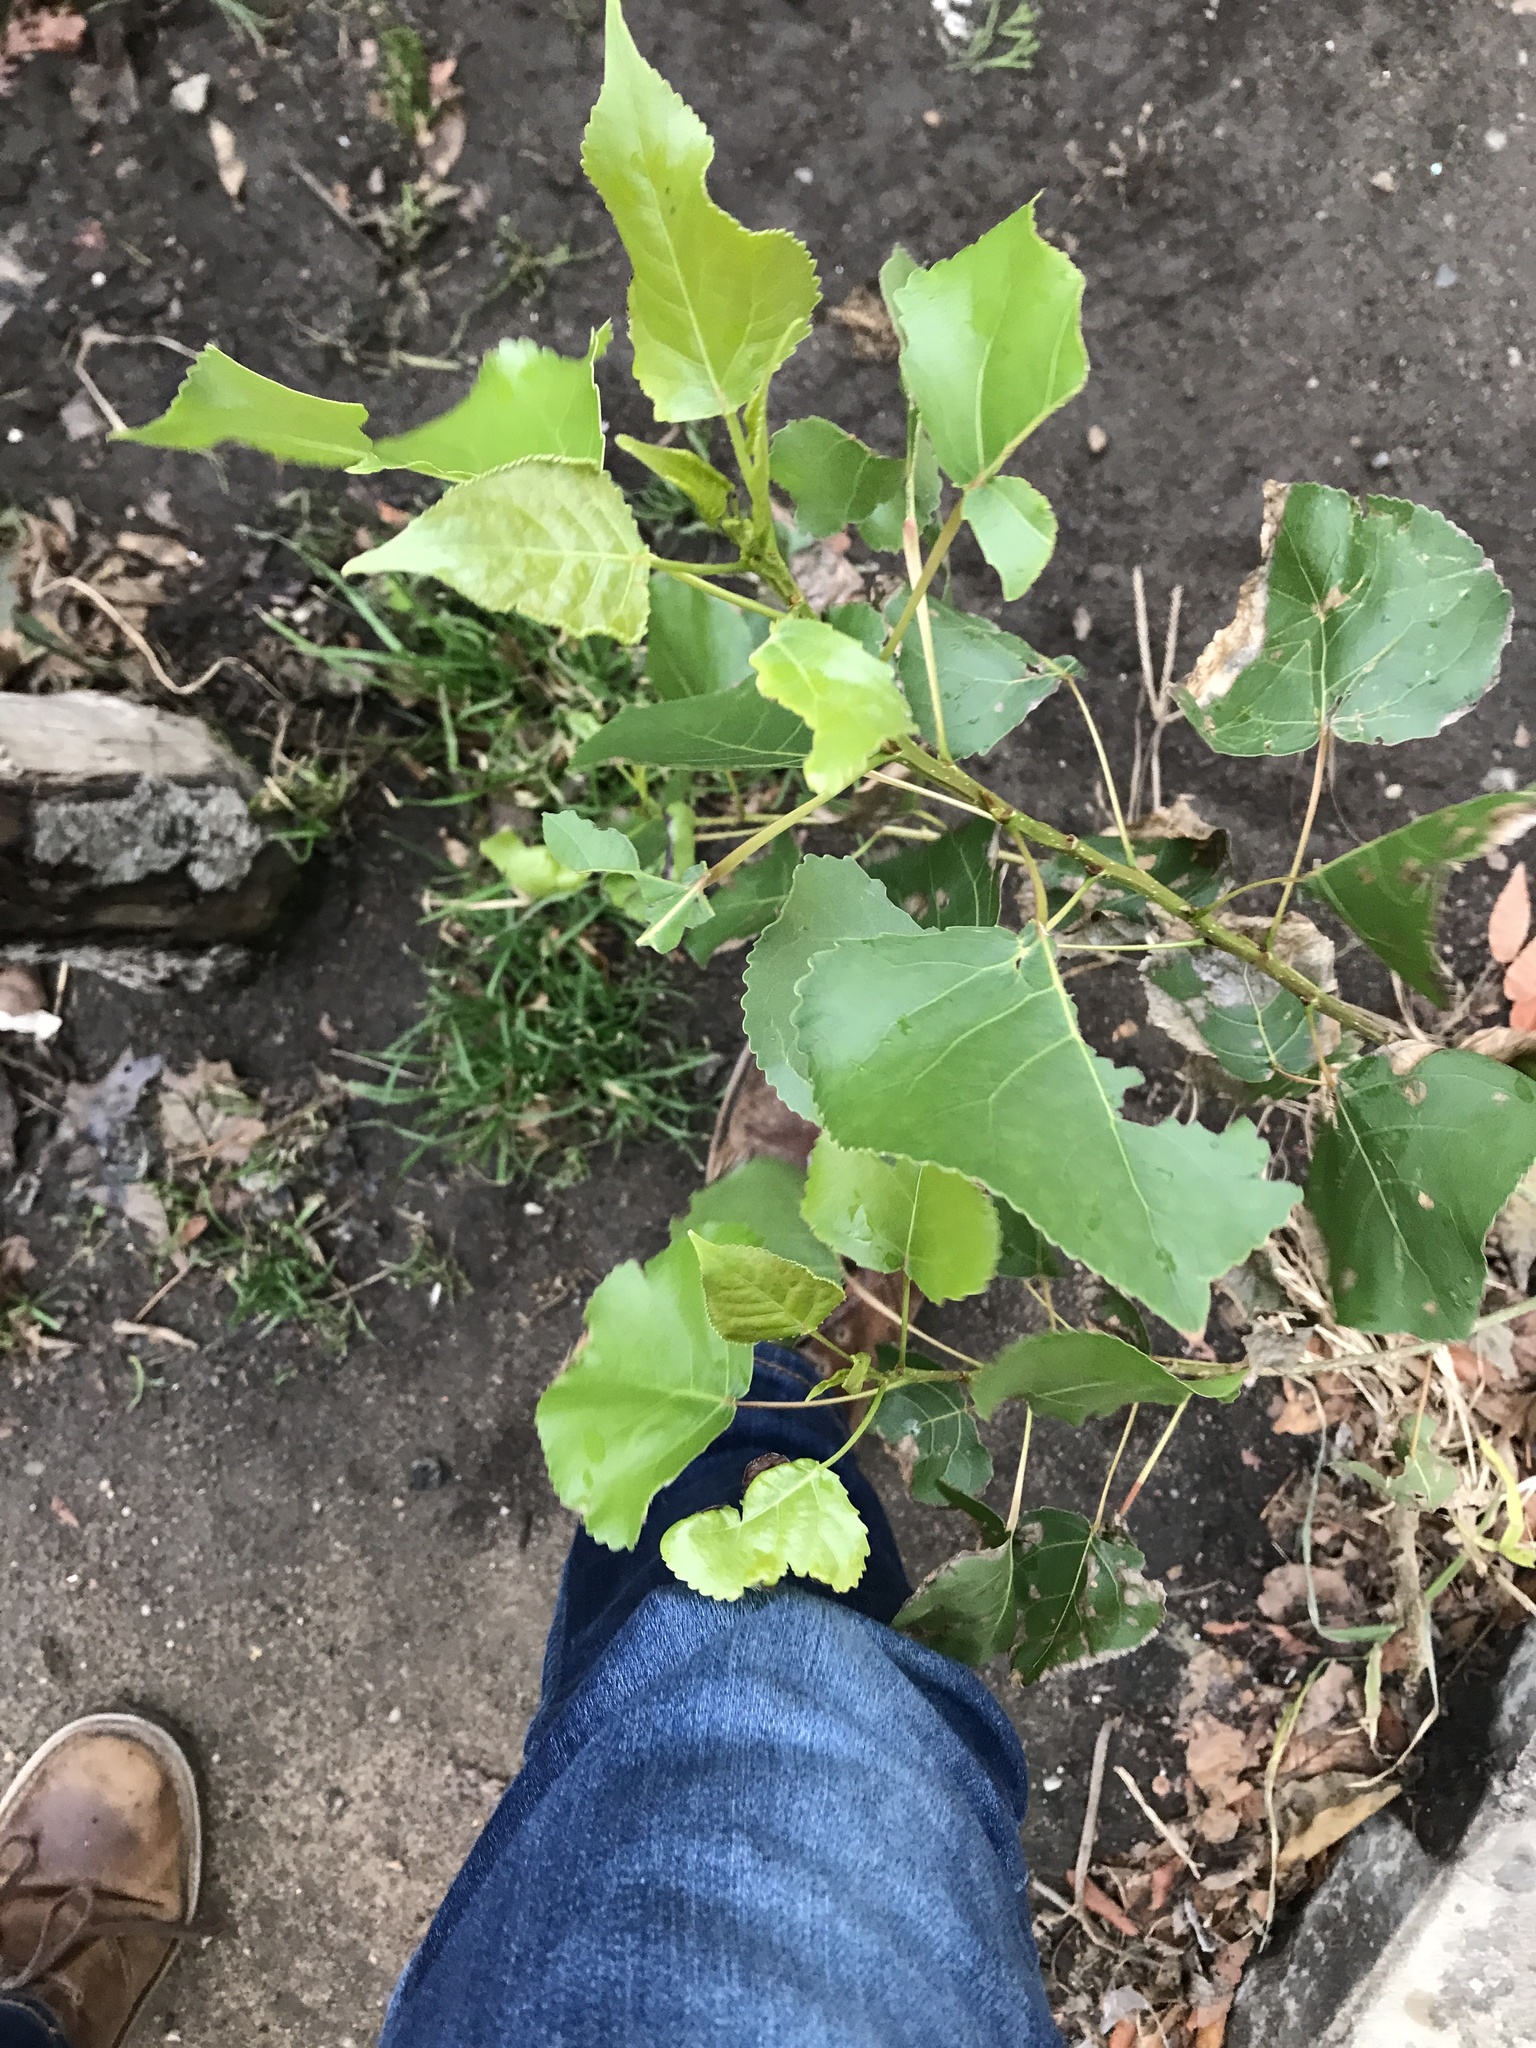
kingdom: Plantae
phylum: Tracheophyta
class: Magnoliopsida
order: Malpighiales
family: Salicaceae
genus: Populus
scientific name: Populus deltoides
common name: Eastern cottonwood
